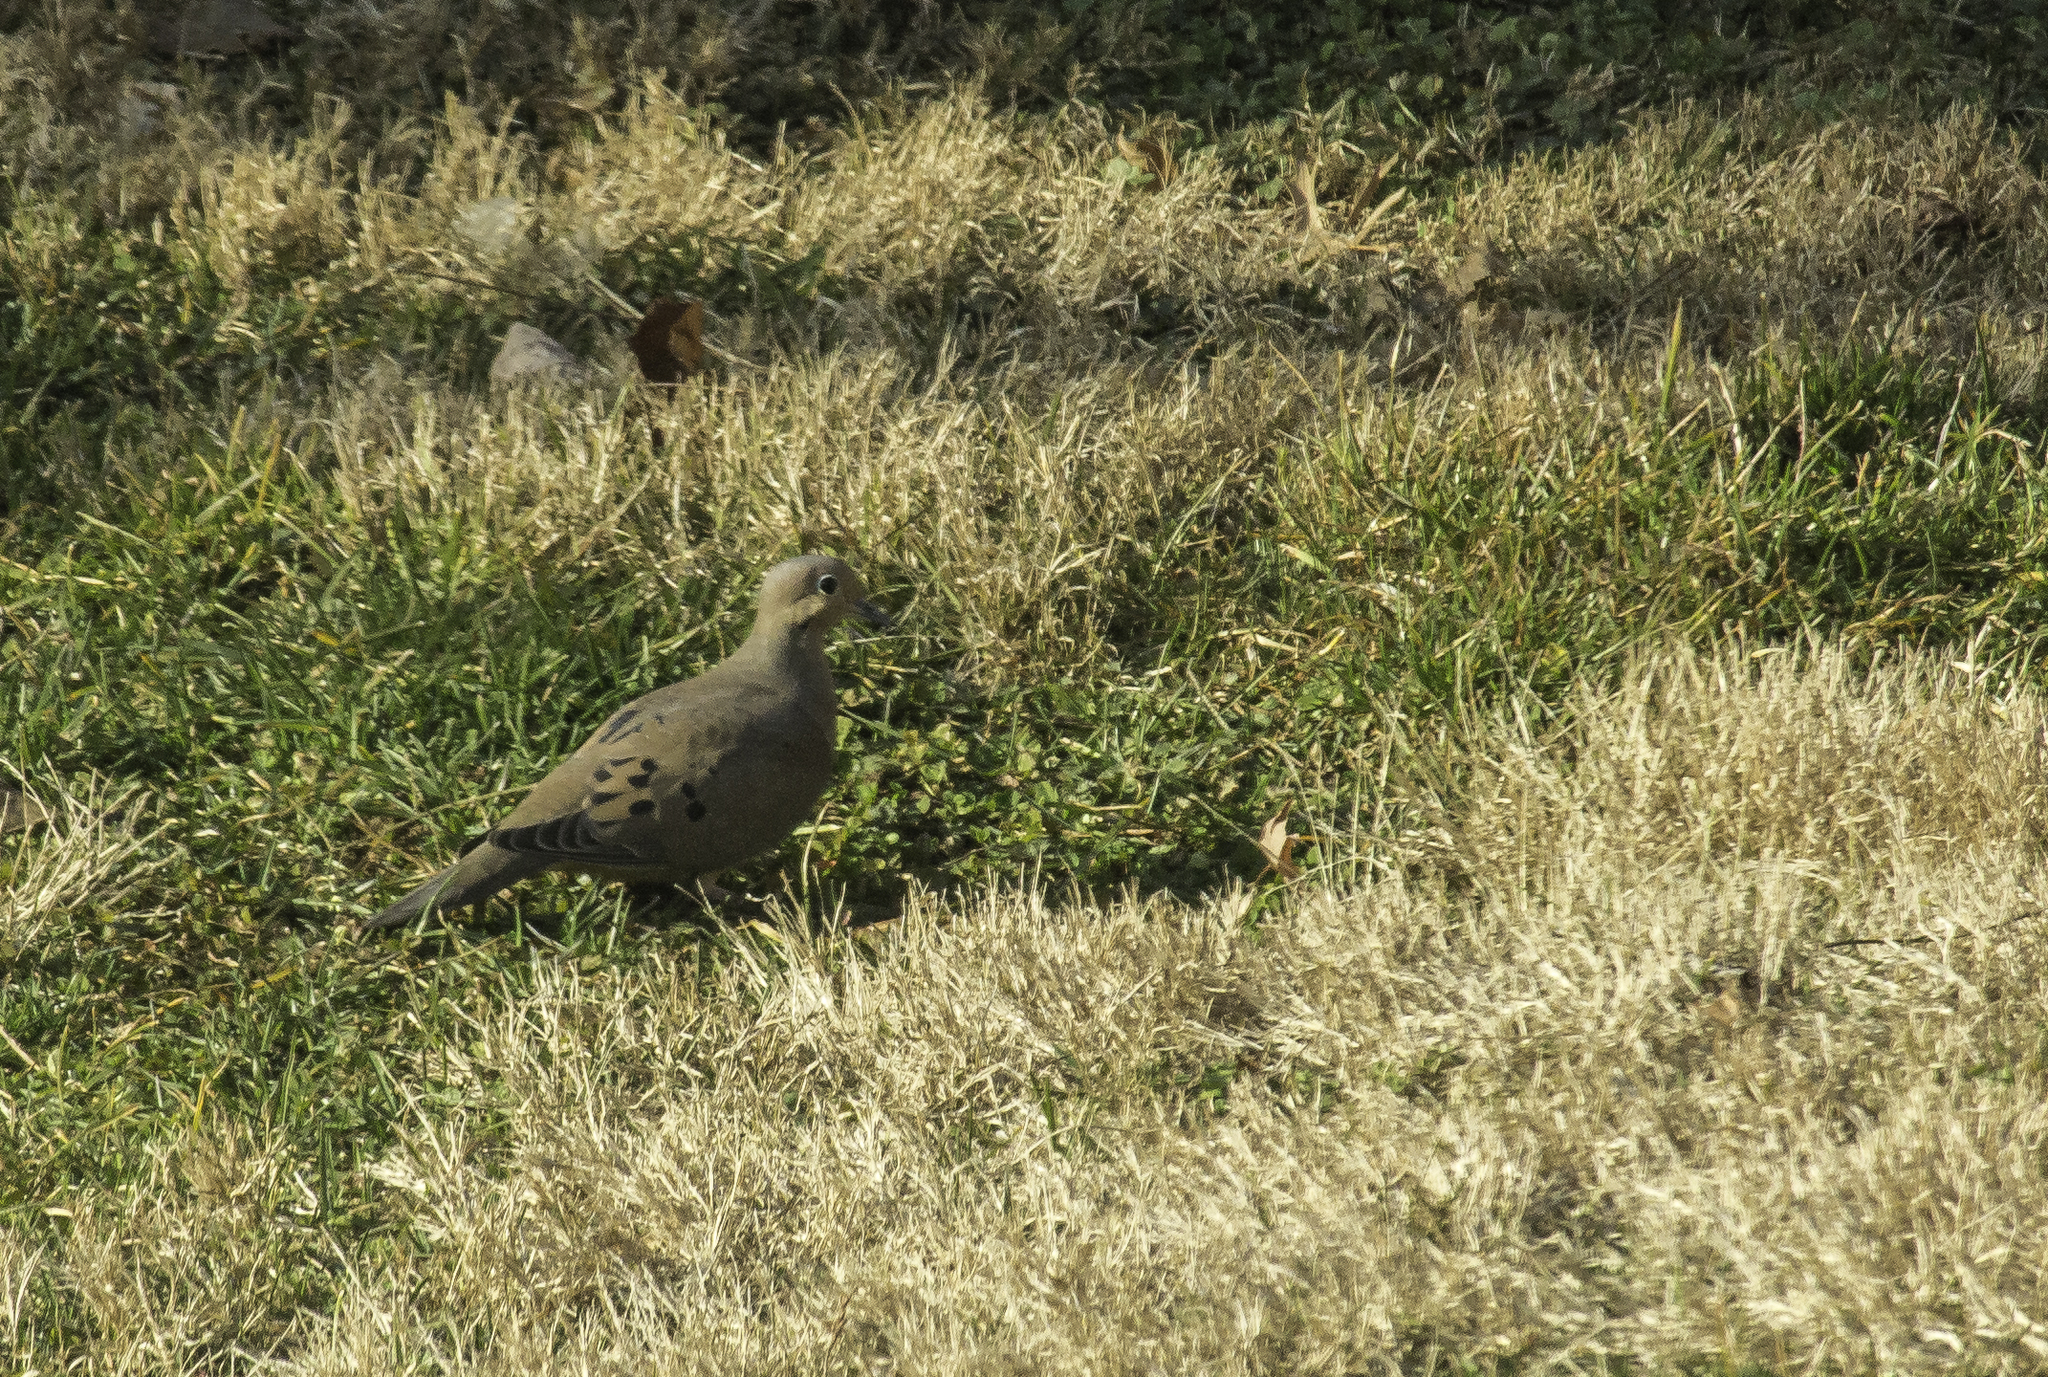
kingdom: Animalia
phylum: Chordata
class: Aves
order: Columbiformes
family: Columbidae
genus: Zenaida
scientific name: Zenaida macroura
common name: Mourning dove
